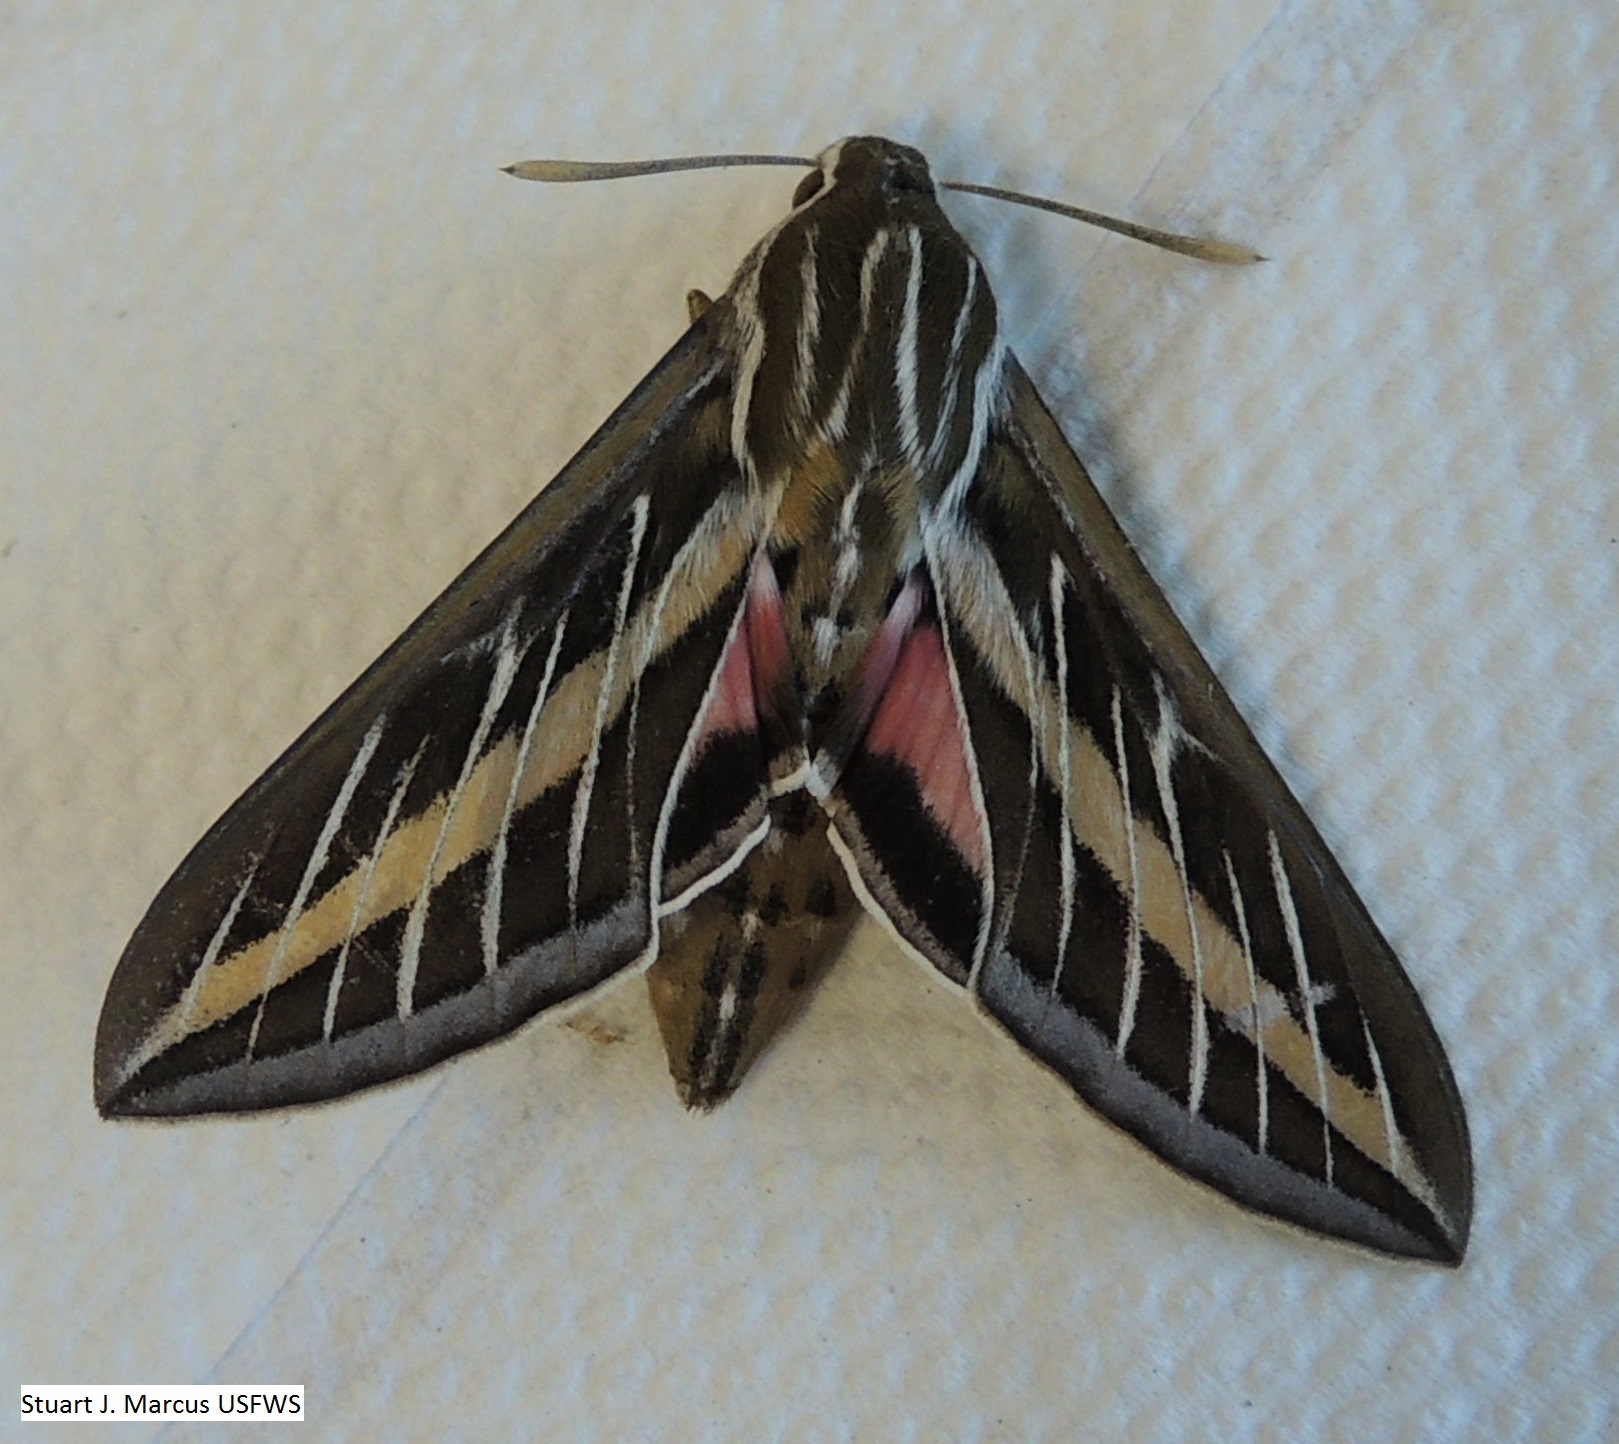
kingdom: Animalia
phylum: Arthropoda
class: Insecta
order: Lepidoptera
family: Sphingidae
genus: Hyles
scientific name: Hyles lineata
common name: White-lined sphinx
